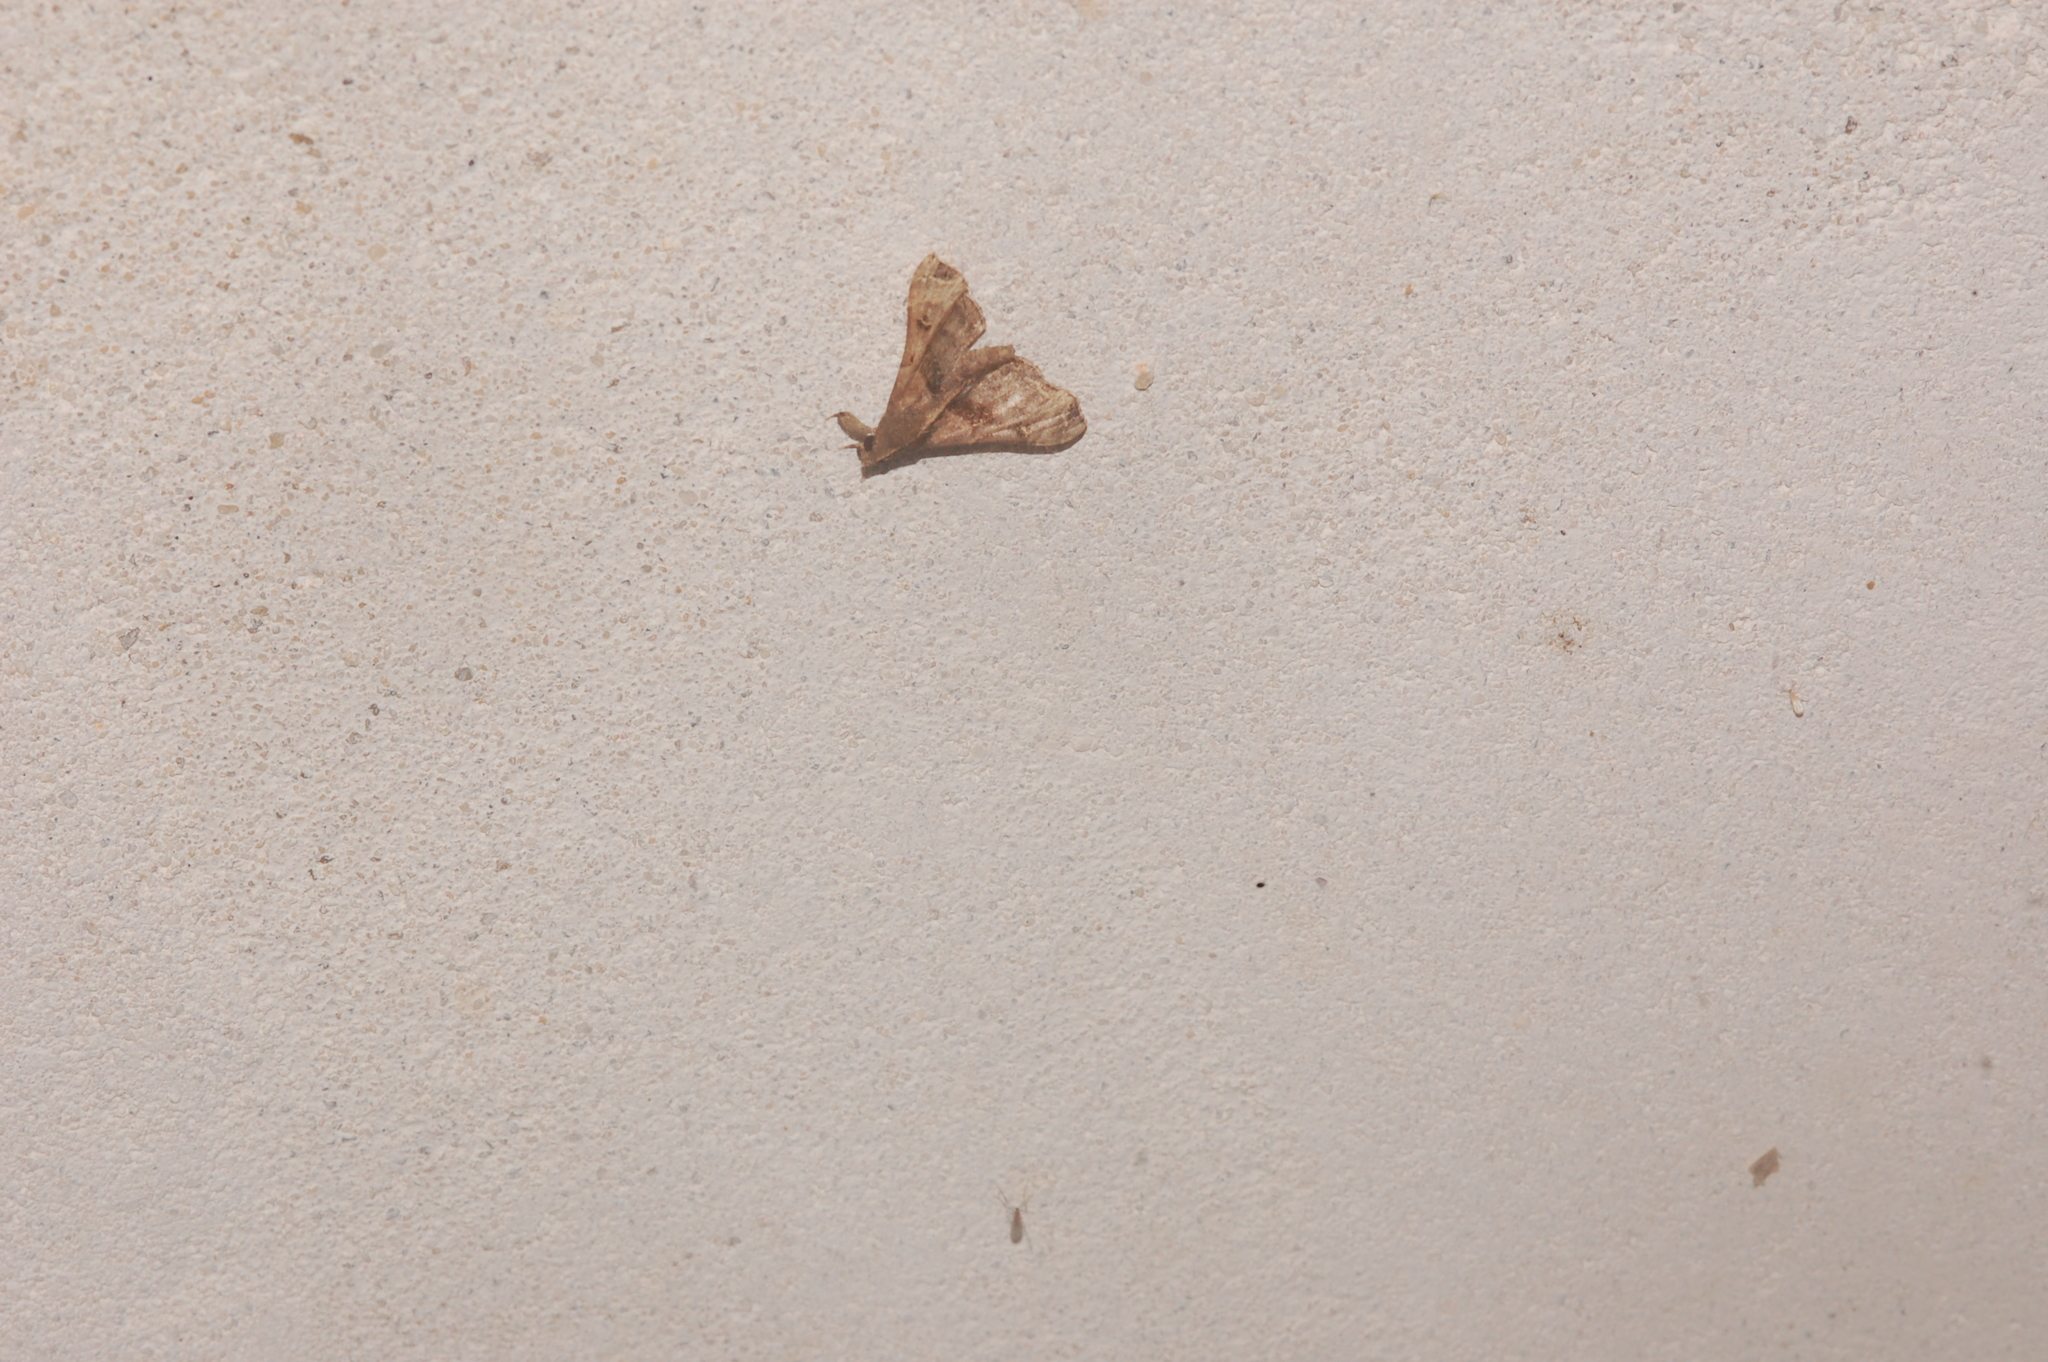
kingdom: Animalia
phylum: Arthropoda
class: Insecta
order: Lepidoptera
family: Erebidae
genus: Palthis
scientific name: Palthis asopialis
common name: Faint-spotted palthis moth
